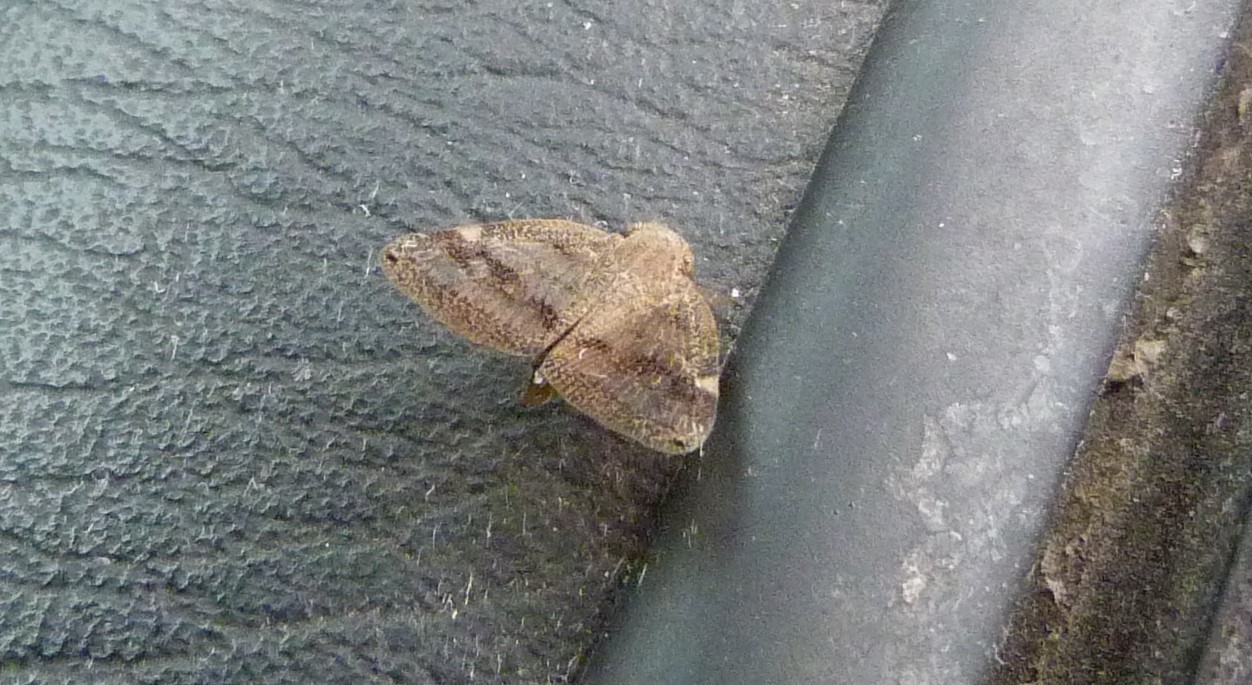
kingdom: Animalia
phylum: Arthropoda
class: Insecta
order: Hemiptera
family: Ricaniidae
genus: Scolypopa
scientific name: Scolypopa australis
